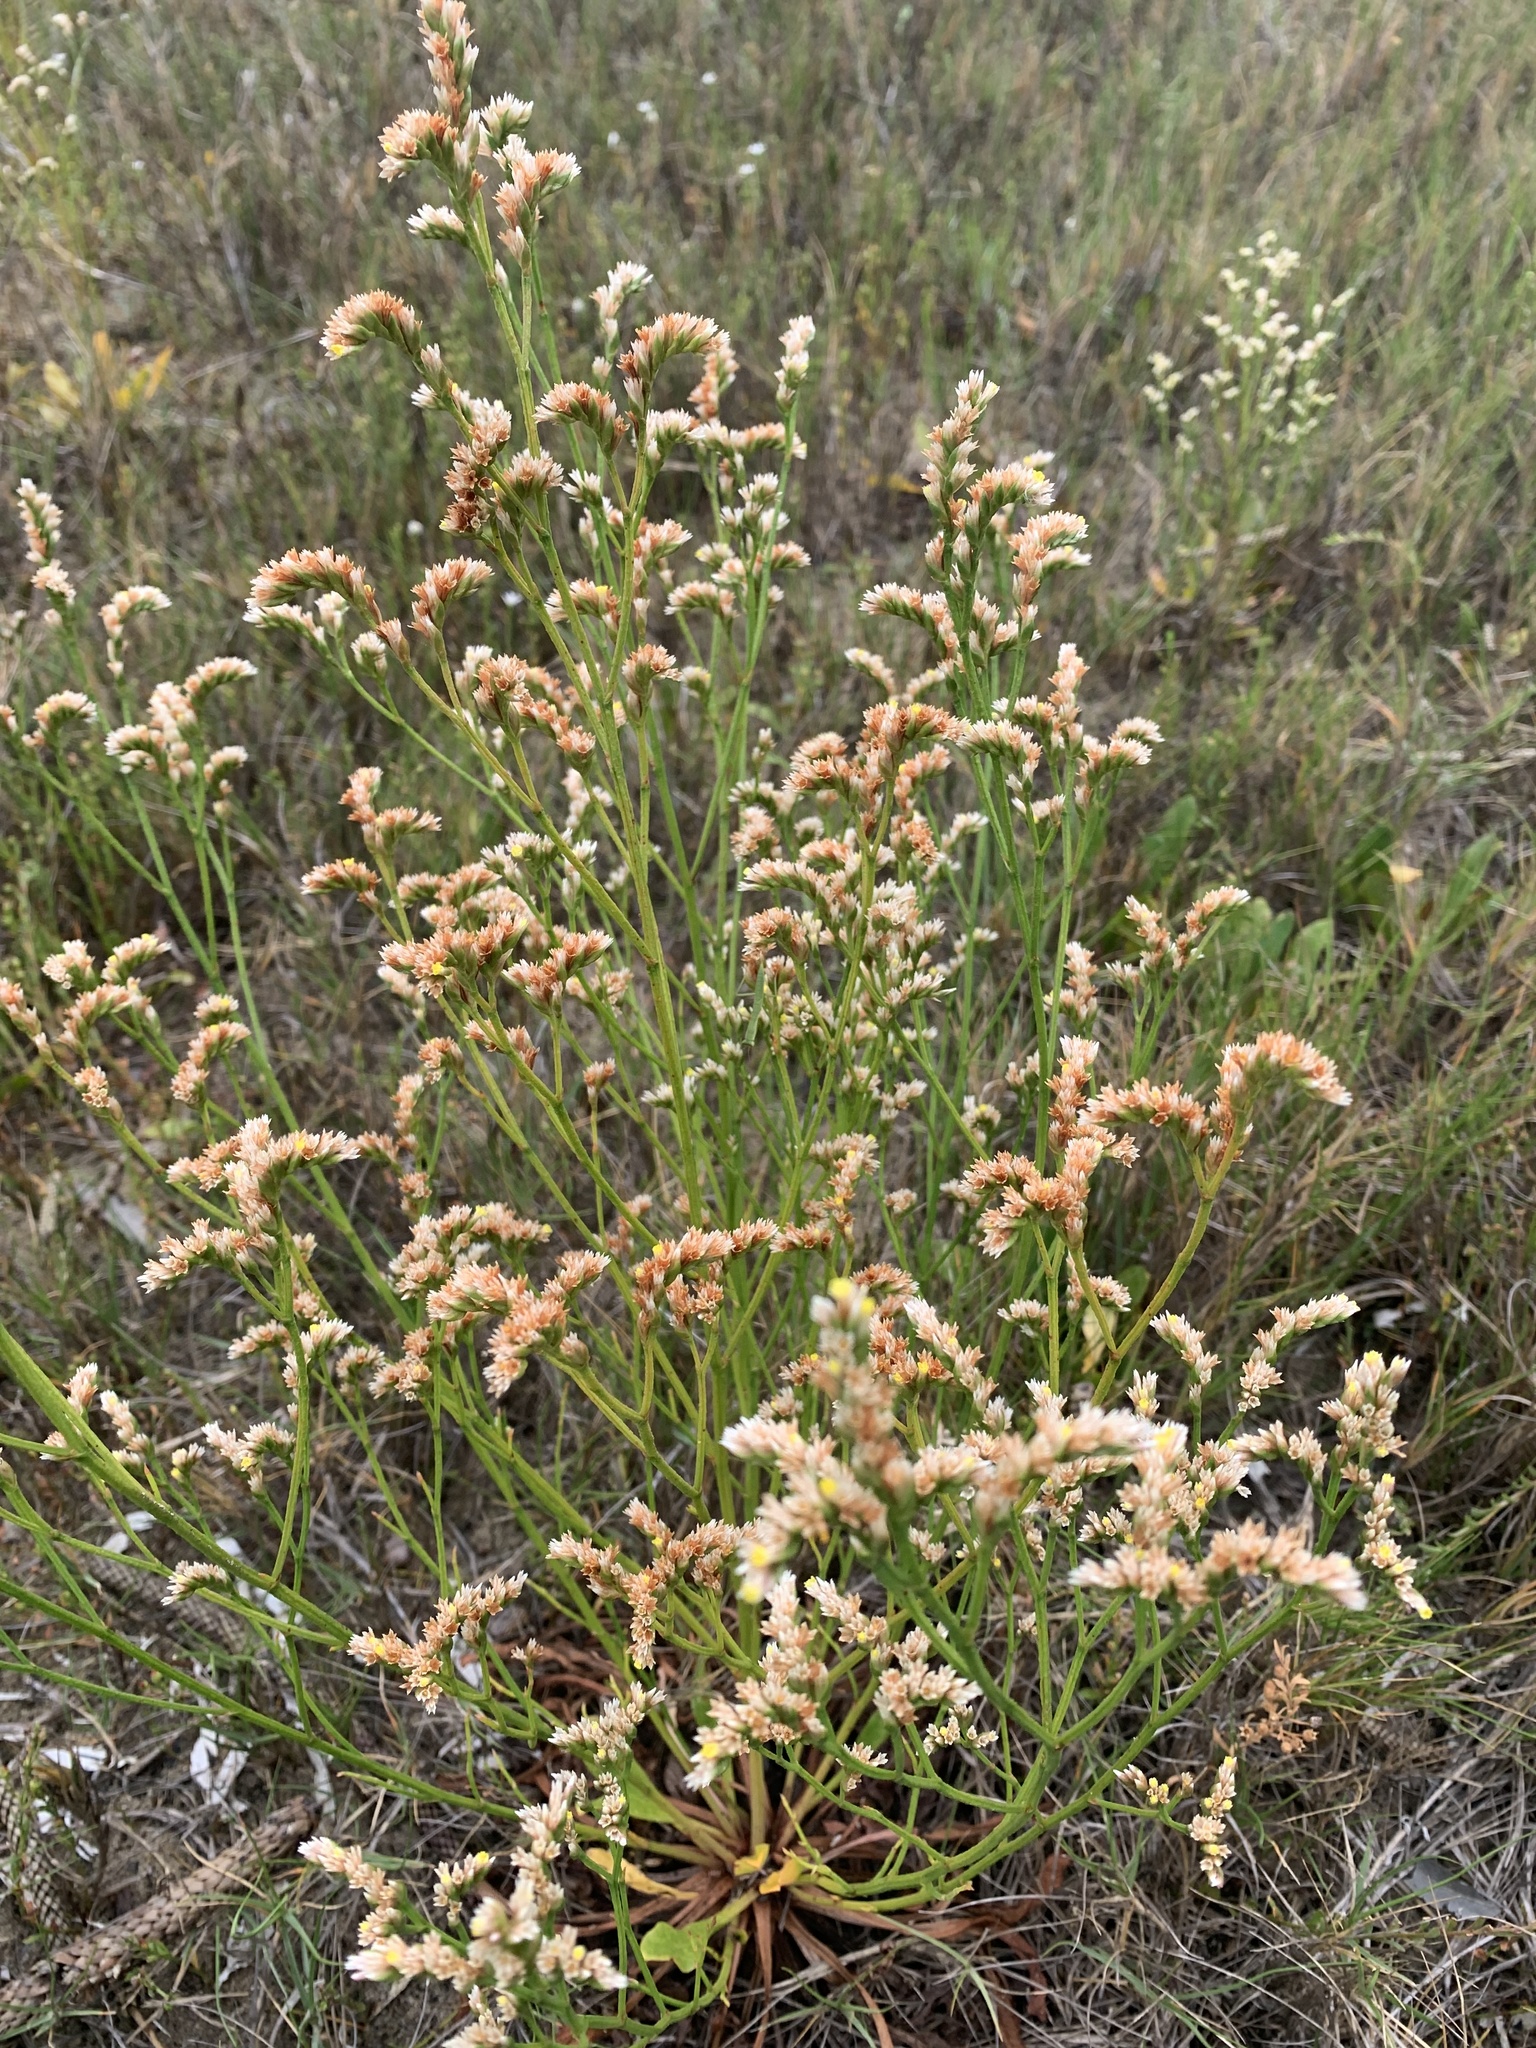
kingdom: Plantae
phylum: Tracheophyta
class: Magnoliopsida
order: Caryophyllales
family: Plumbaginaceae
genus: Limonium
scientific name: Limonium australe
